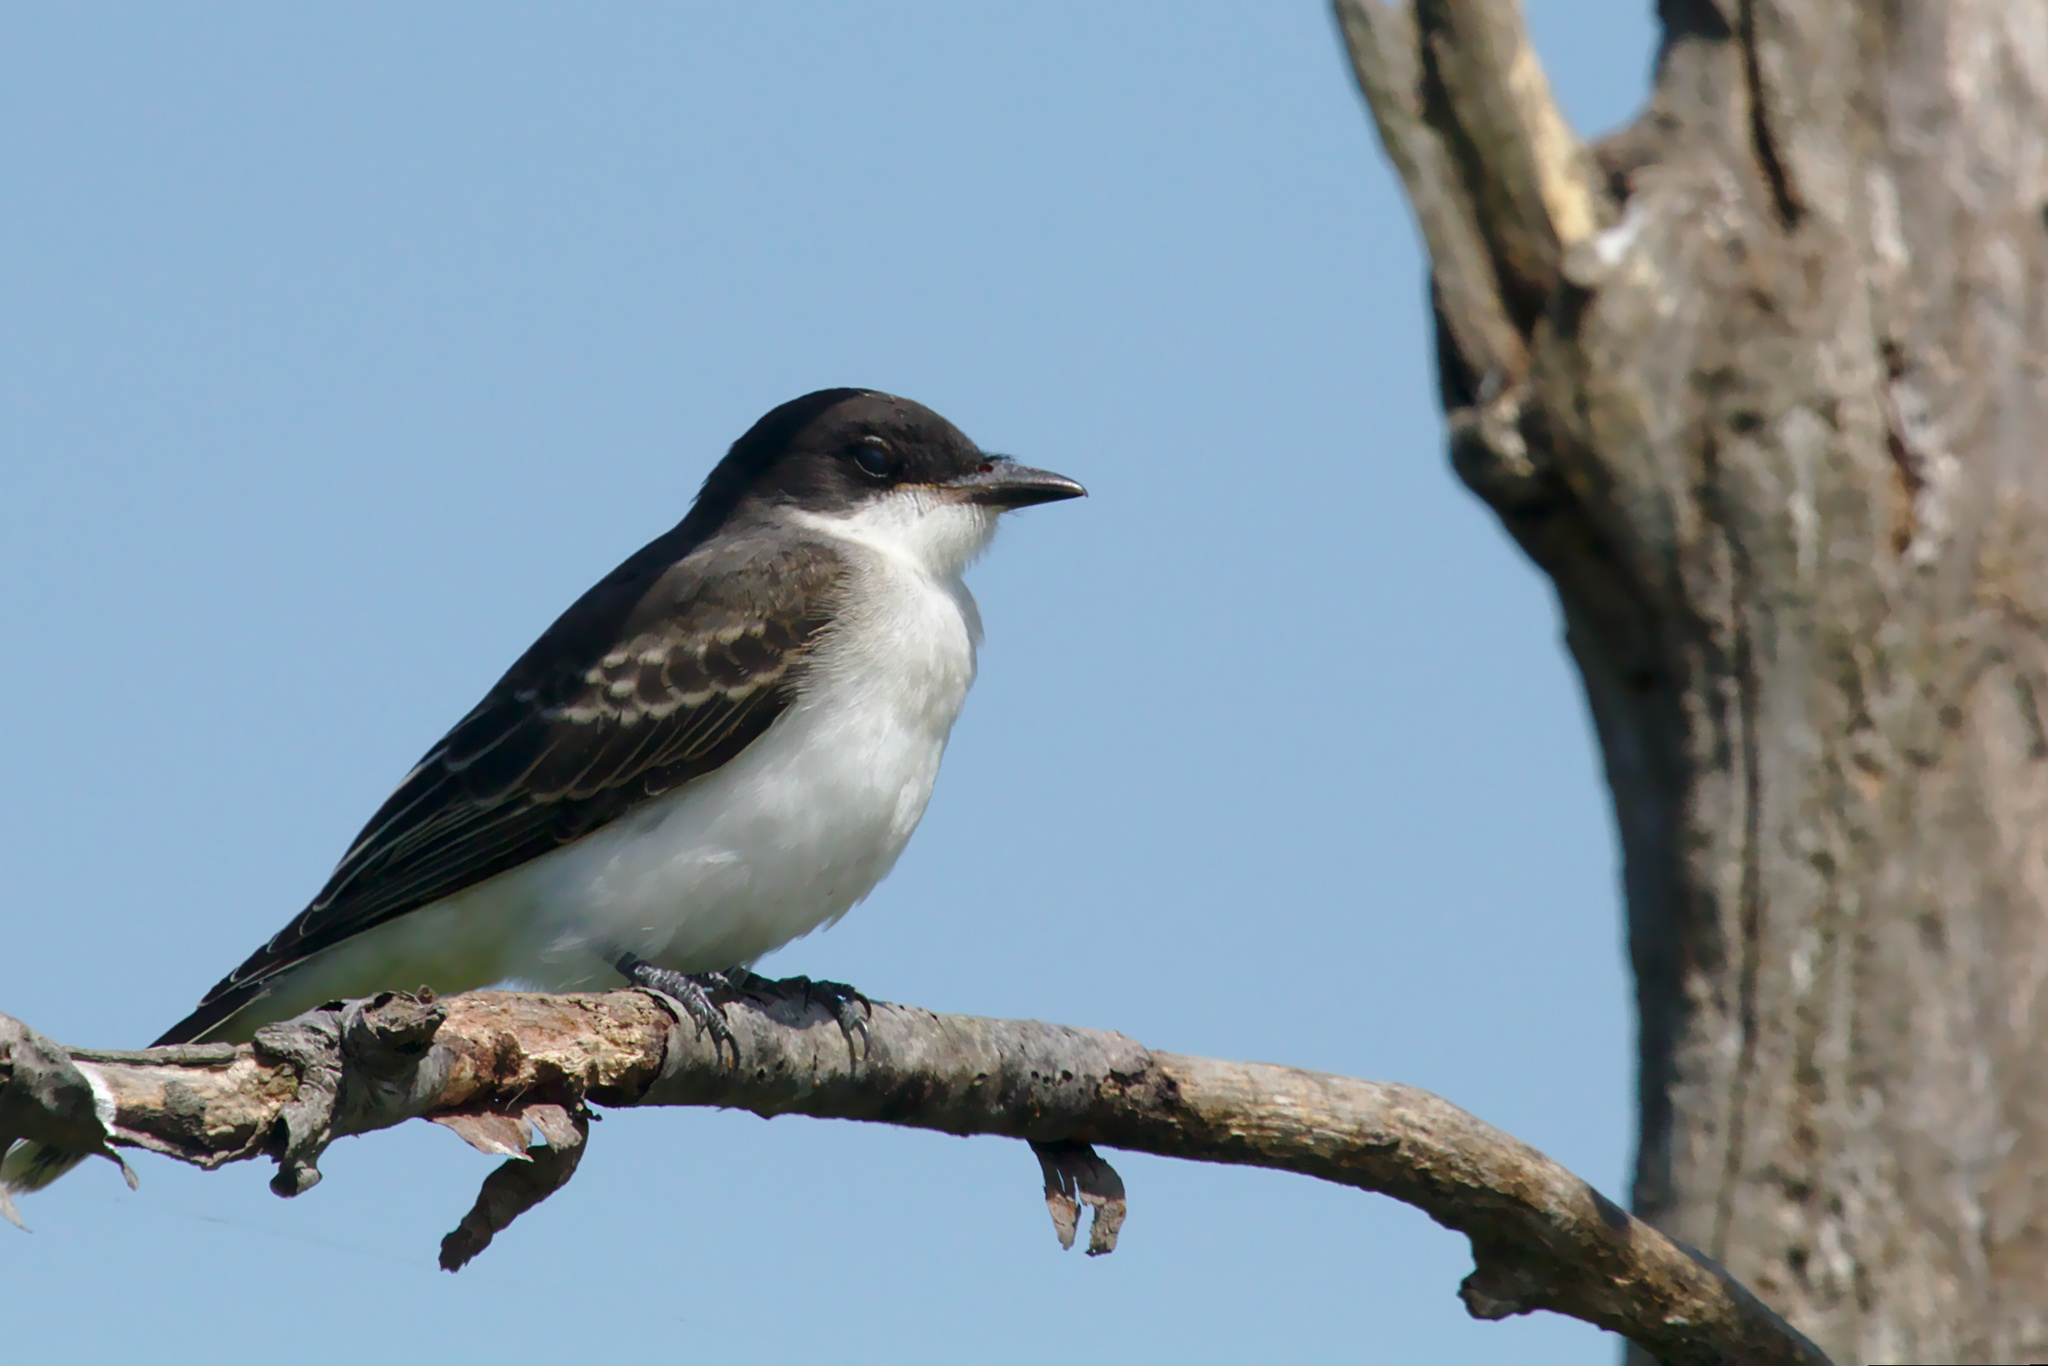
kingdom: Animalia
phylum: Chordata
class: Aves
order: Passeriformes
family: Tyrannidae
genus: Tyrannus
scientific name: Tyrannus tyrannus
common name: Eastern kingbird
